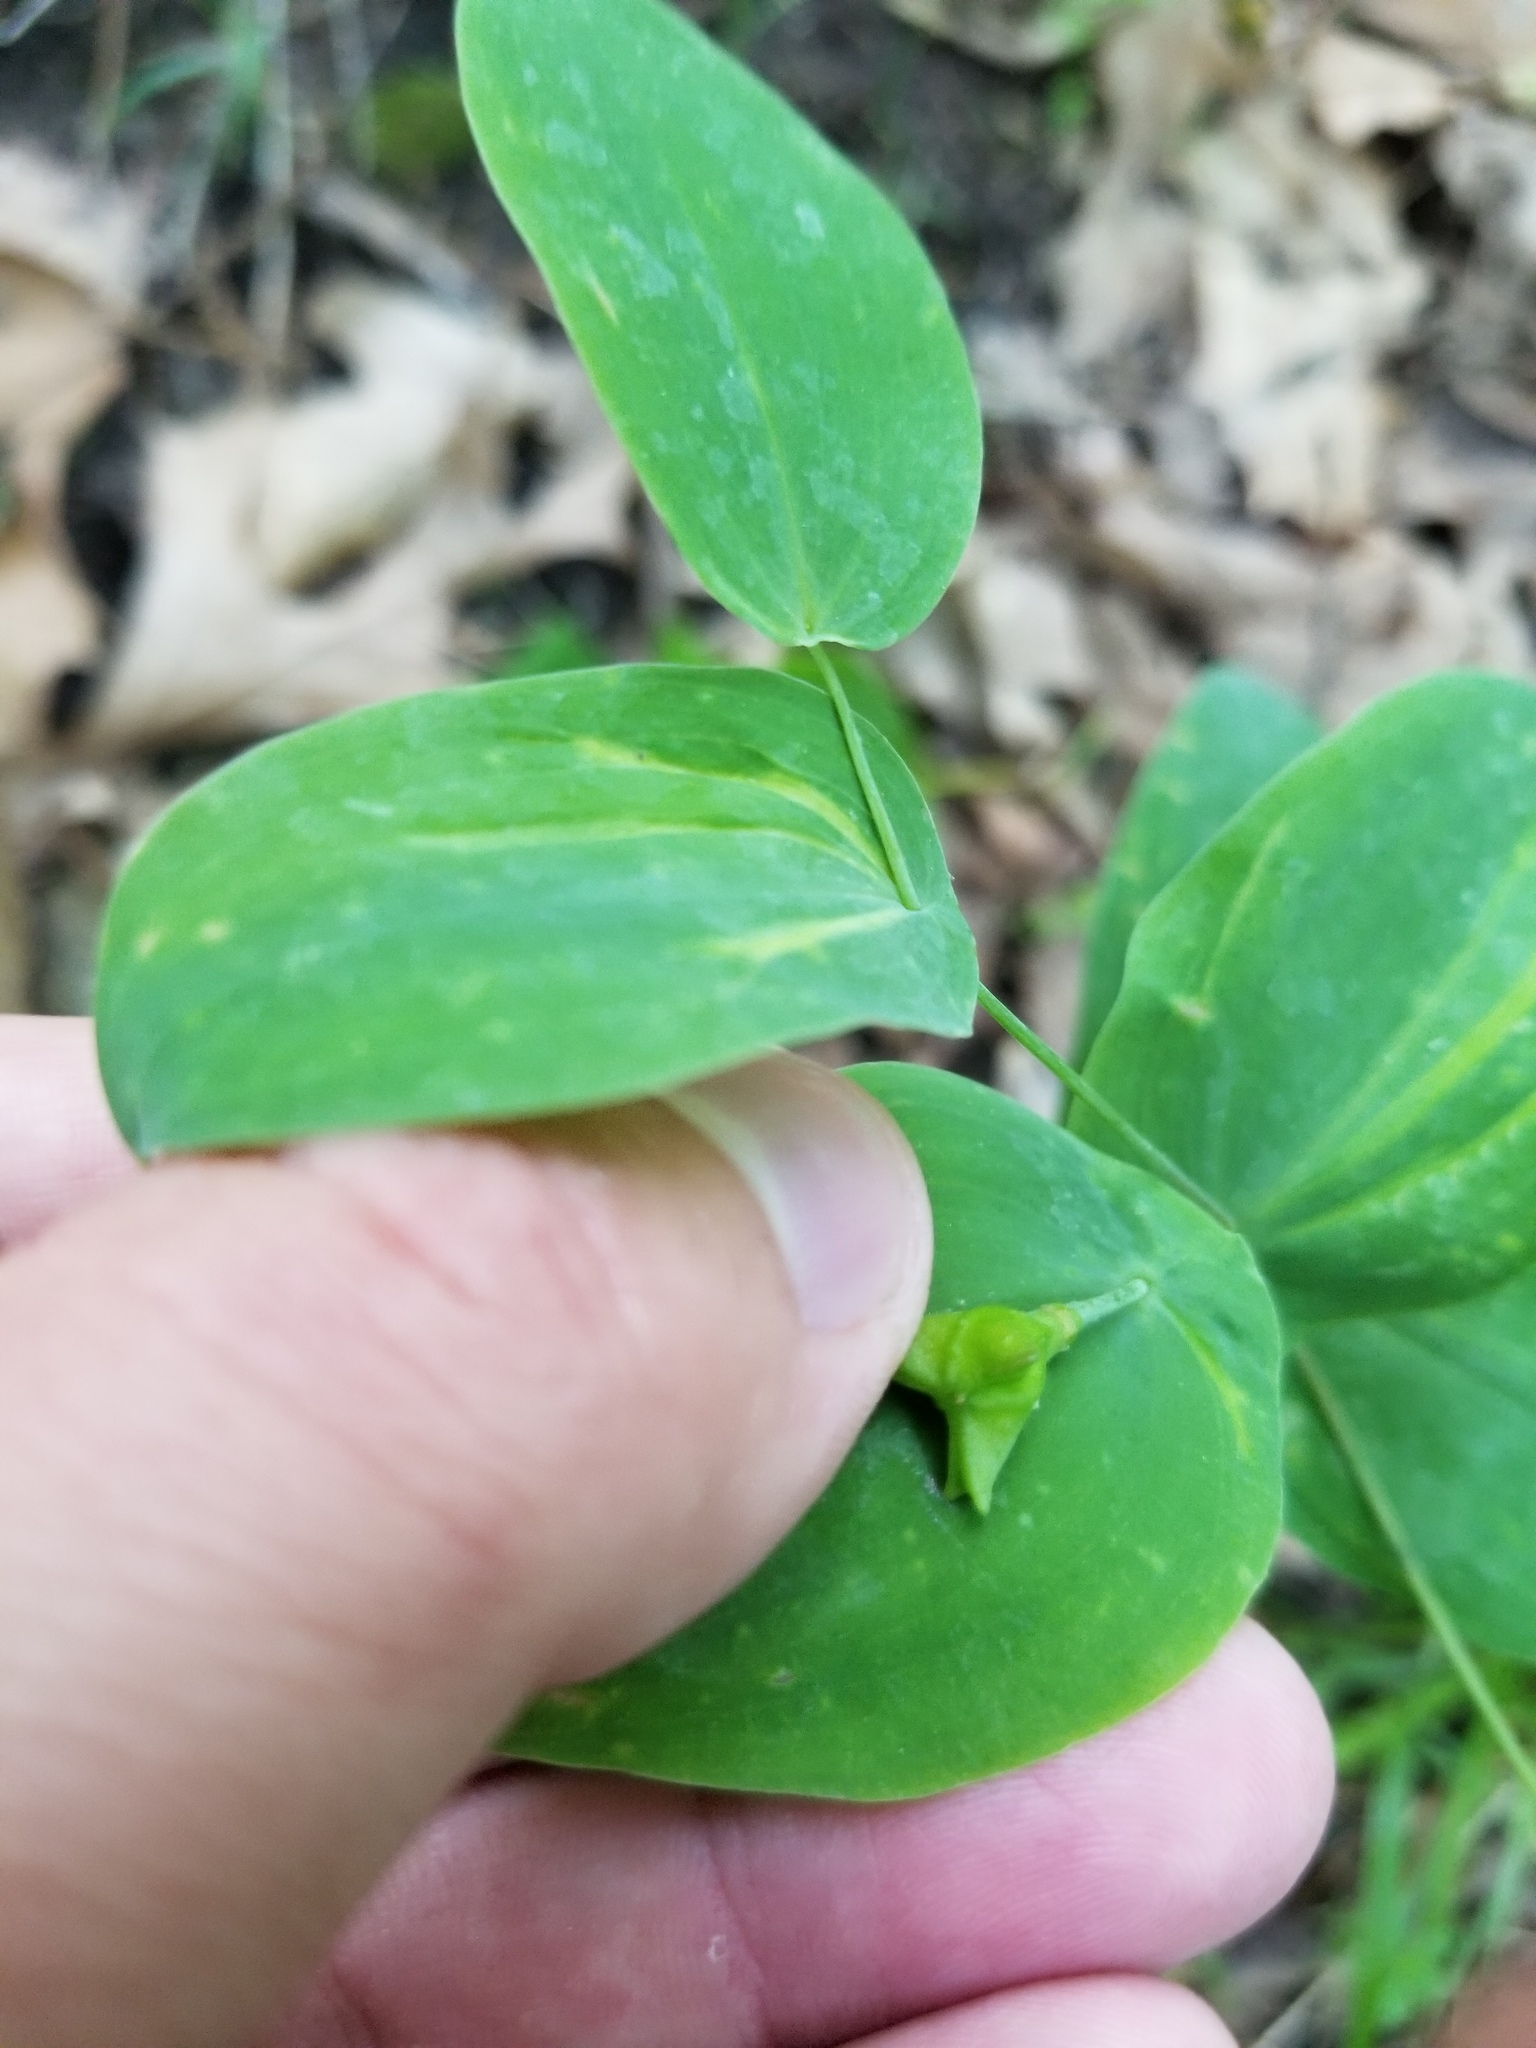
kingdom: Plantae
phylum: Tracheophyta
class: Liliopsida
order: Liliales
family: Colchicaceae
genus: Uvularia
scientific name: Uvularia perfoliata
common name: Perfoliate bellwort
